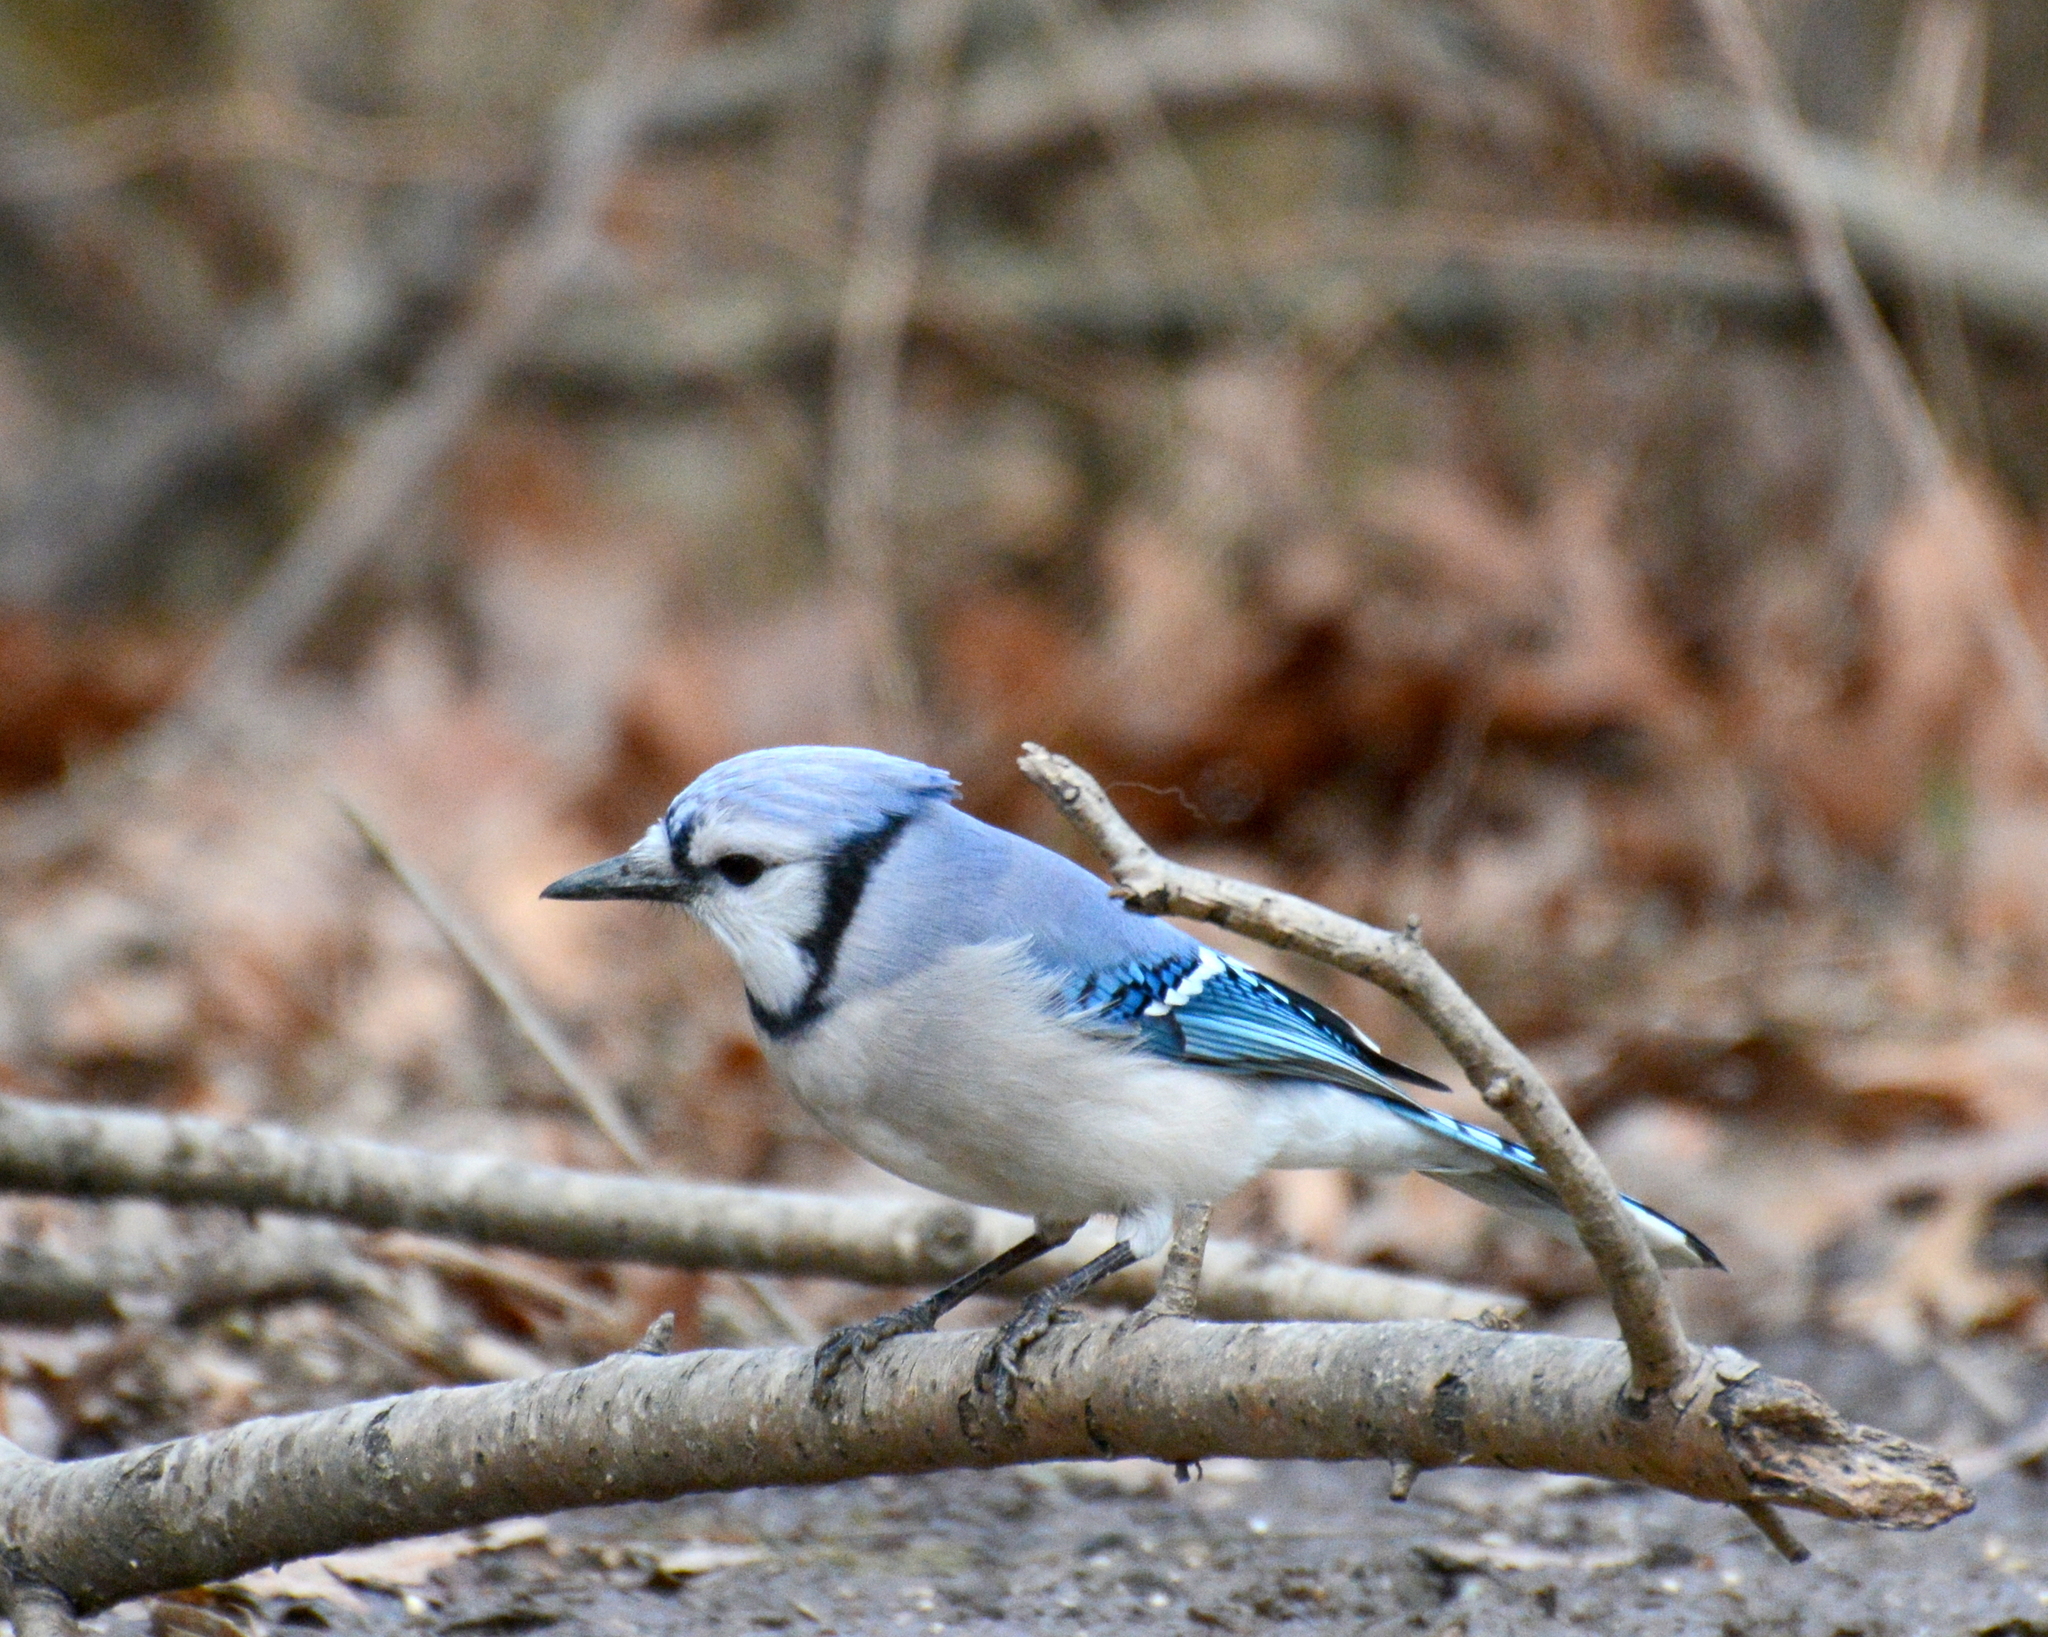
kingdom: Animalia
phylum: Chordata
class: Aves
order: Passeriformes
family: Corvidae
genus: Cyanocitta
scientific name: Cyanocitta cristata
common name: Blue jay
